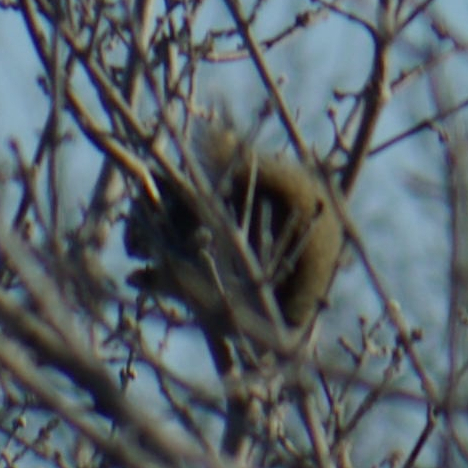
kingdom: Animalia
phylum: Chordata
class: Mammalia
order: Rodentia
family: Sciuridae
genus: Tamiasciurus
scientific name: Tamiasciurus hudsonicus
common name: Red squirrel
